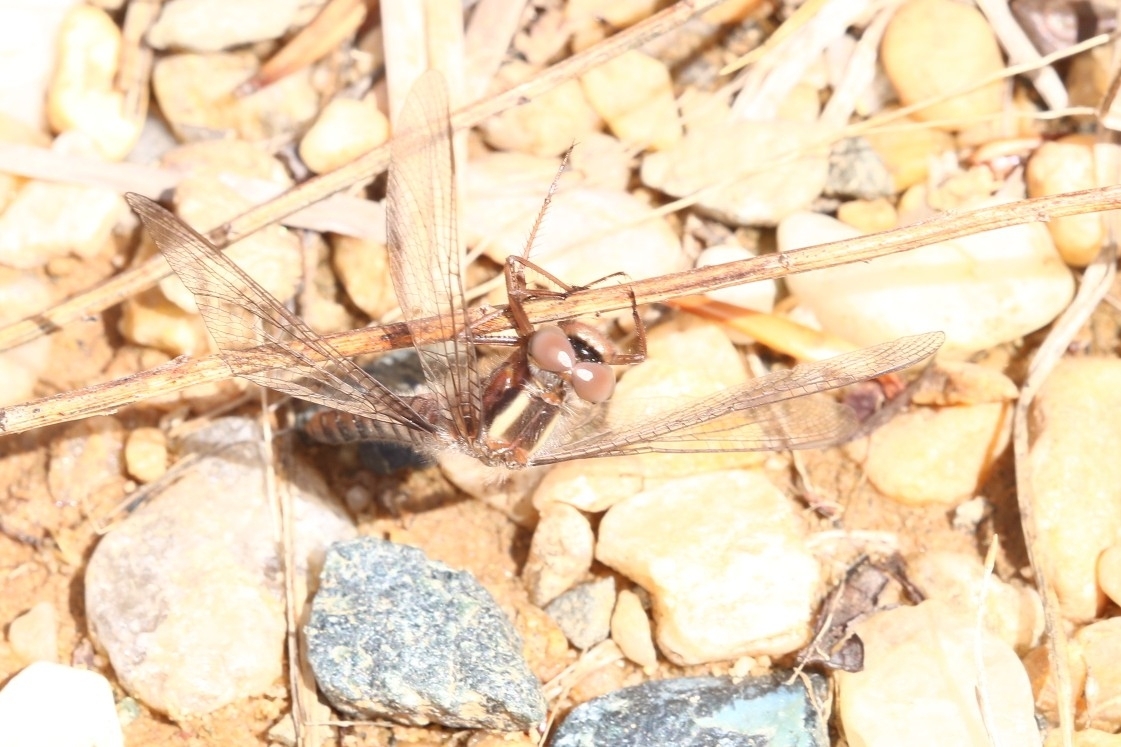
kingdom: Animalia
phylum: Arthropoda
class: Insecta
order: Odonata
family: Libellulidae
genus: Ladona
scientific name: Ladona deplanata
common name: Blue corporal
